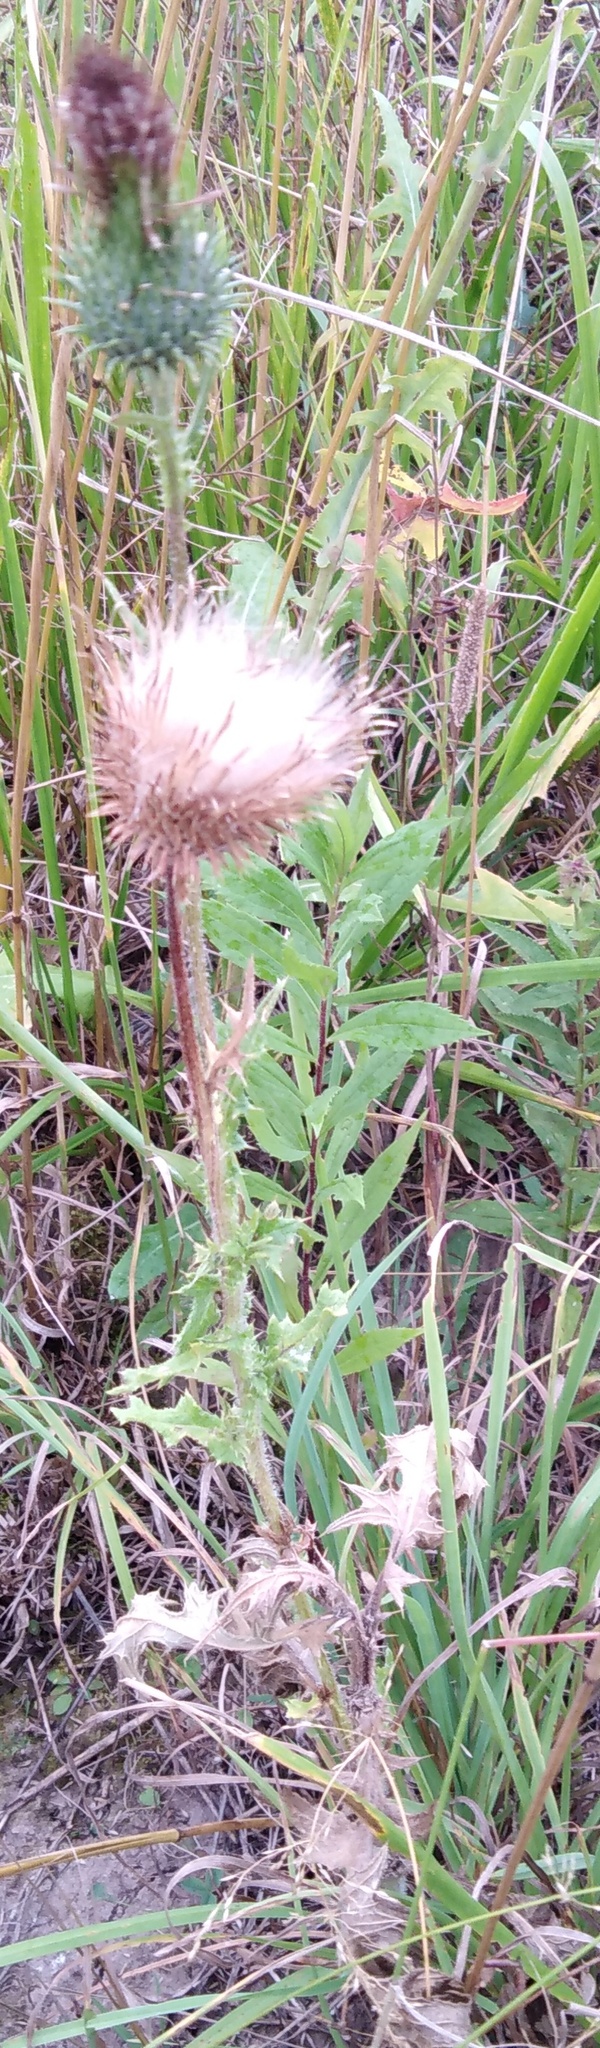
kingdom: Plantae
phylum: Tracheophyta
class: Magnoliopsida
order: Asterales
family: Asteraceae
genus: Cirsium
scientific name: Cirsium vulgare
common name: Bull thistle
